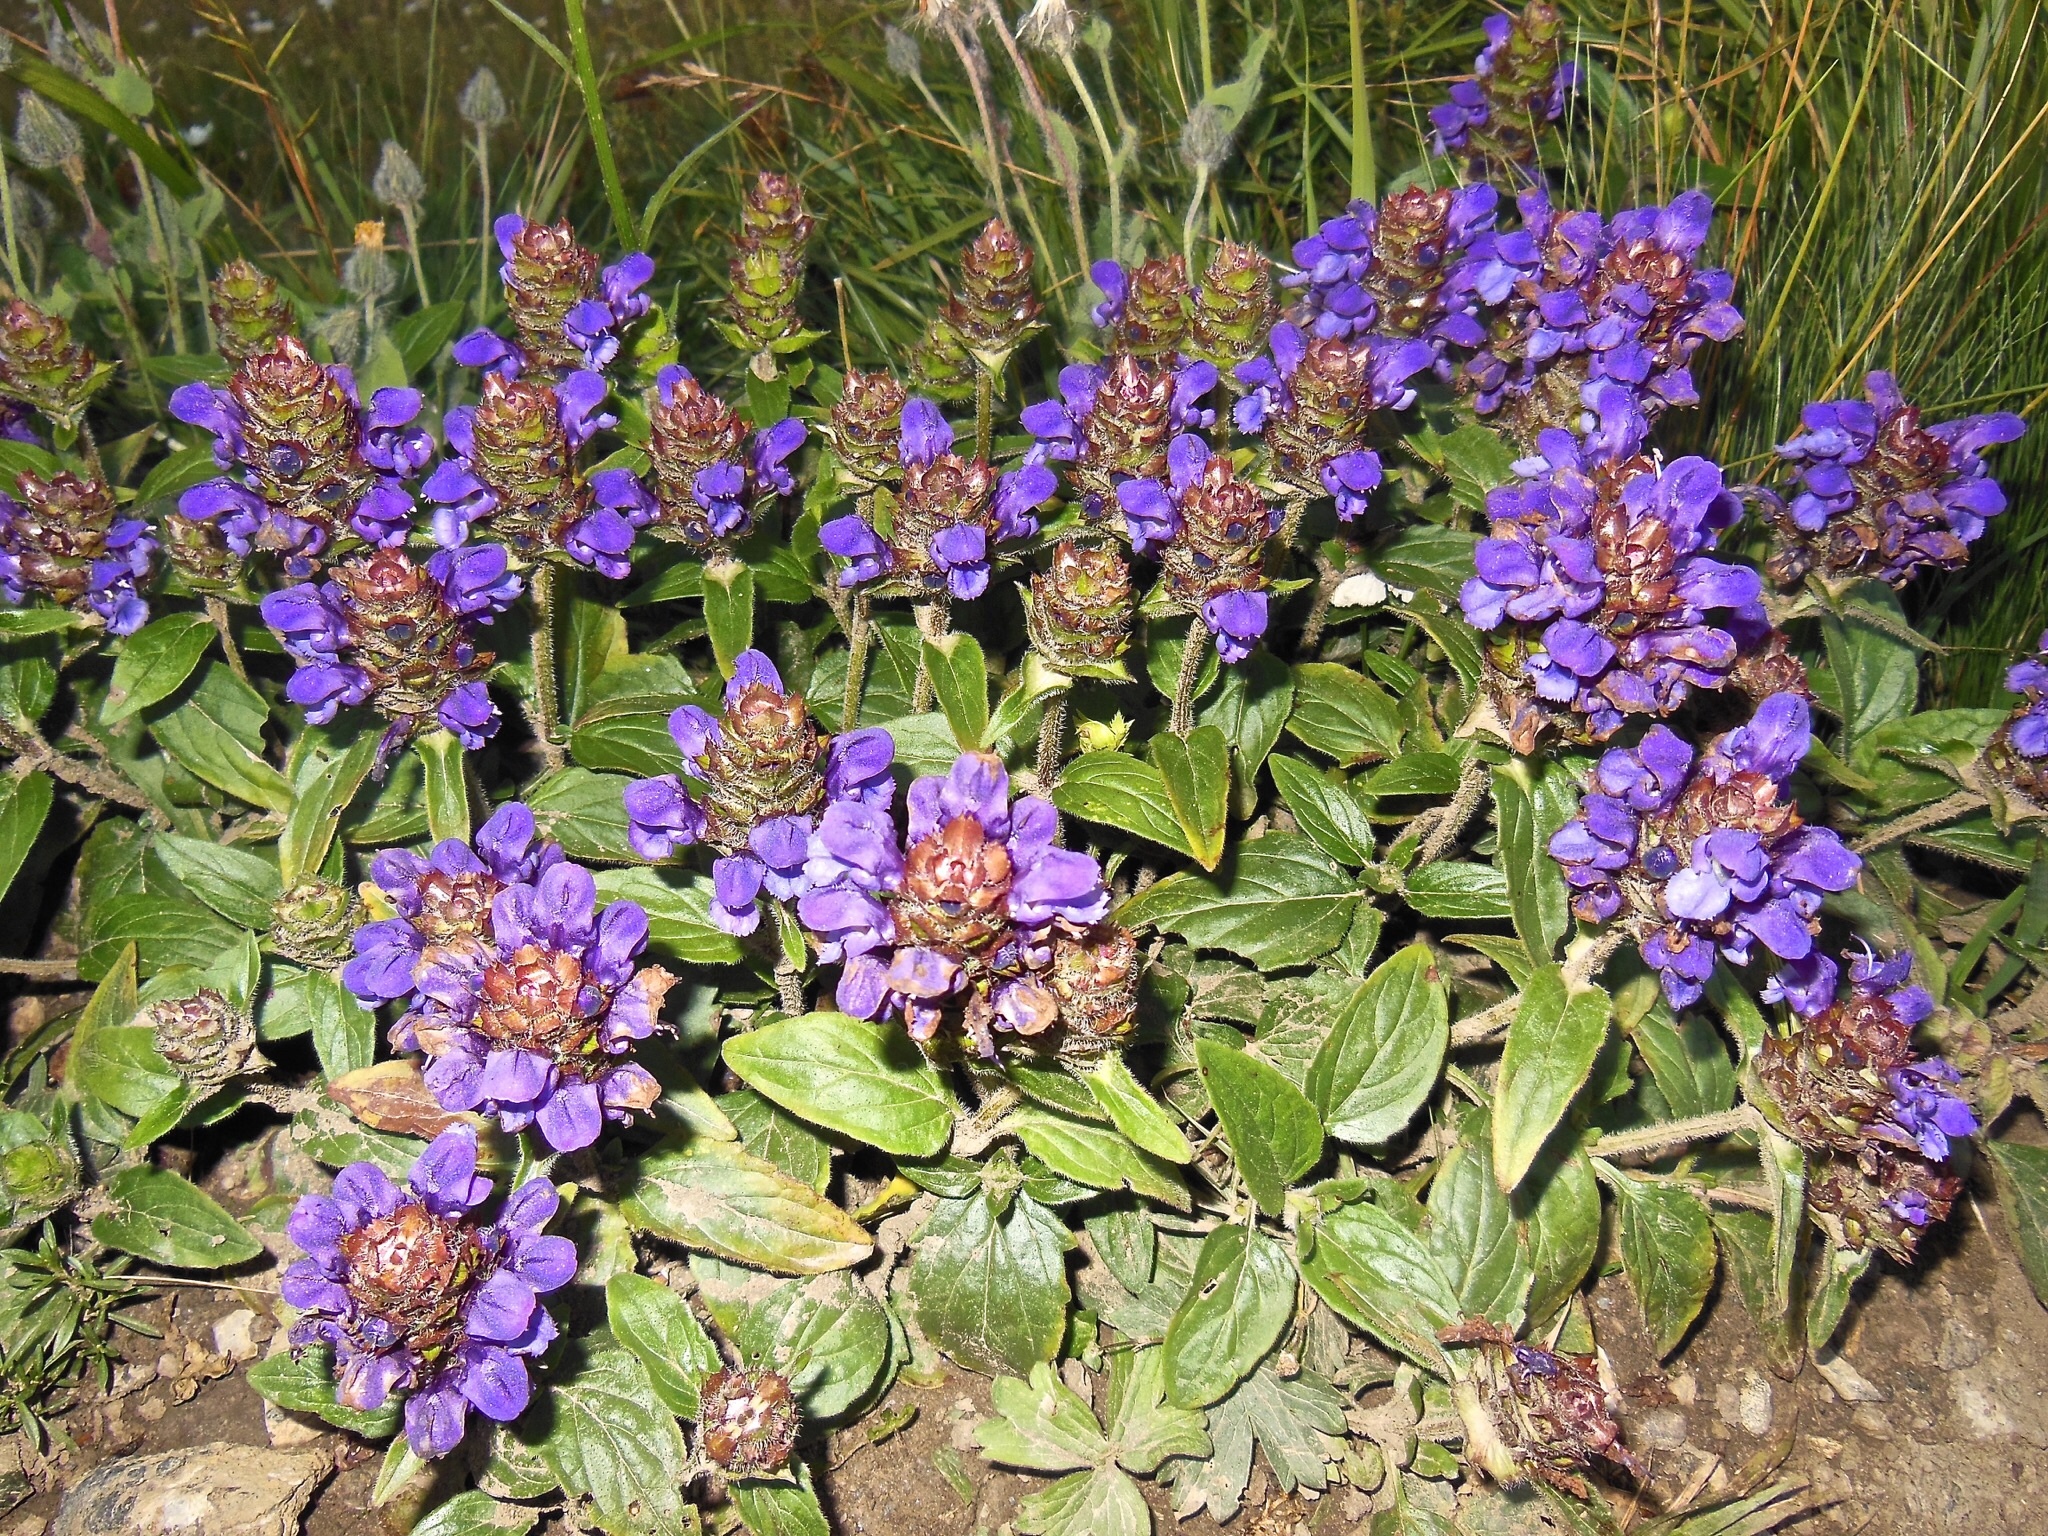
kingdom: Plantae
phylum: Tracheophyta
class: Magnoliopsida
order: Lamiales
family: Lamiaceae
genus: Prunella
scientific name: Prunella vulgaris
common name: Heal-all
